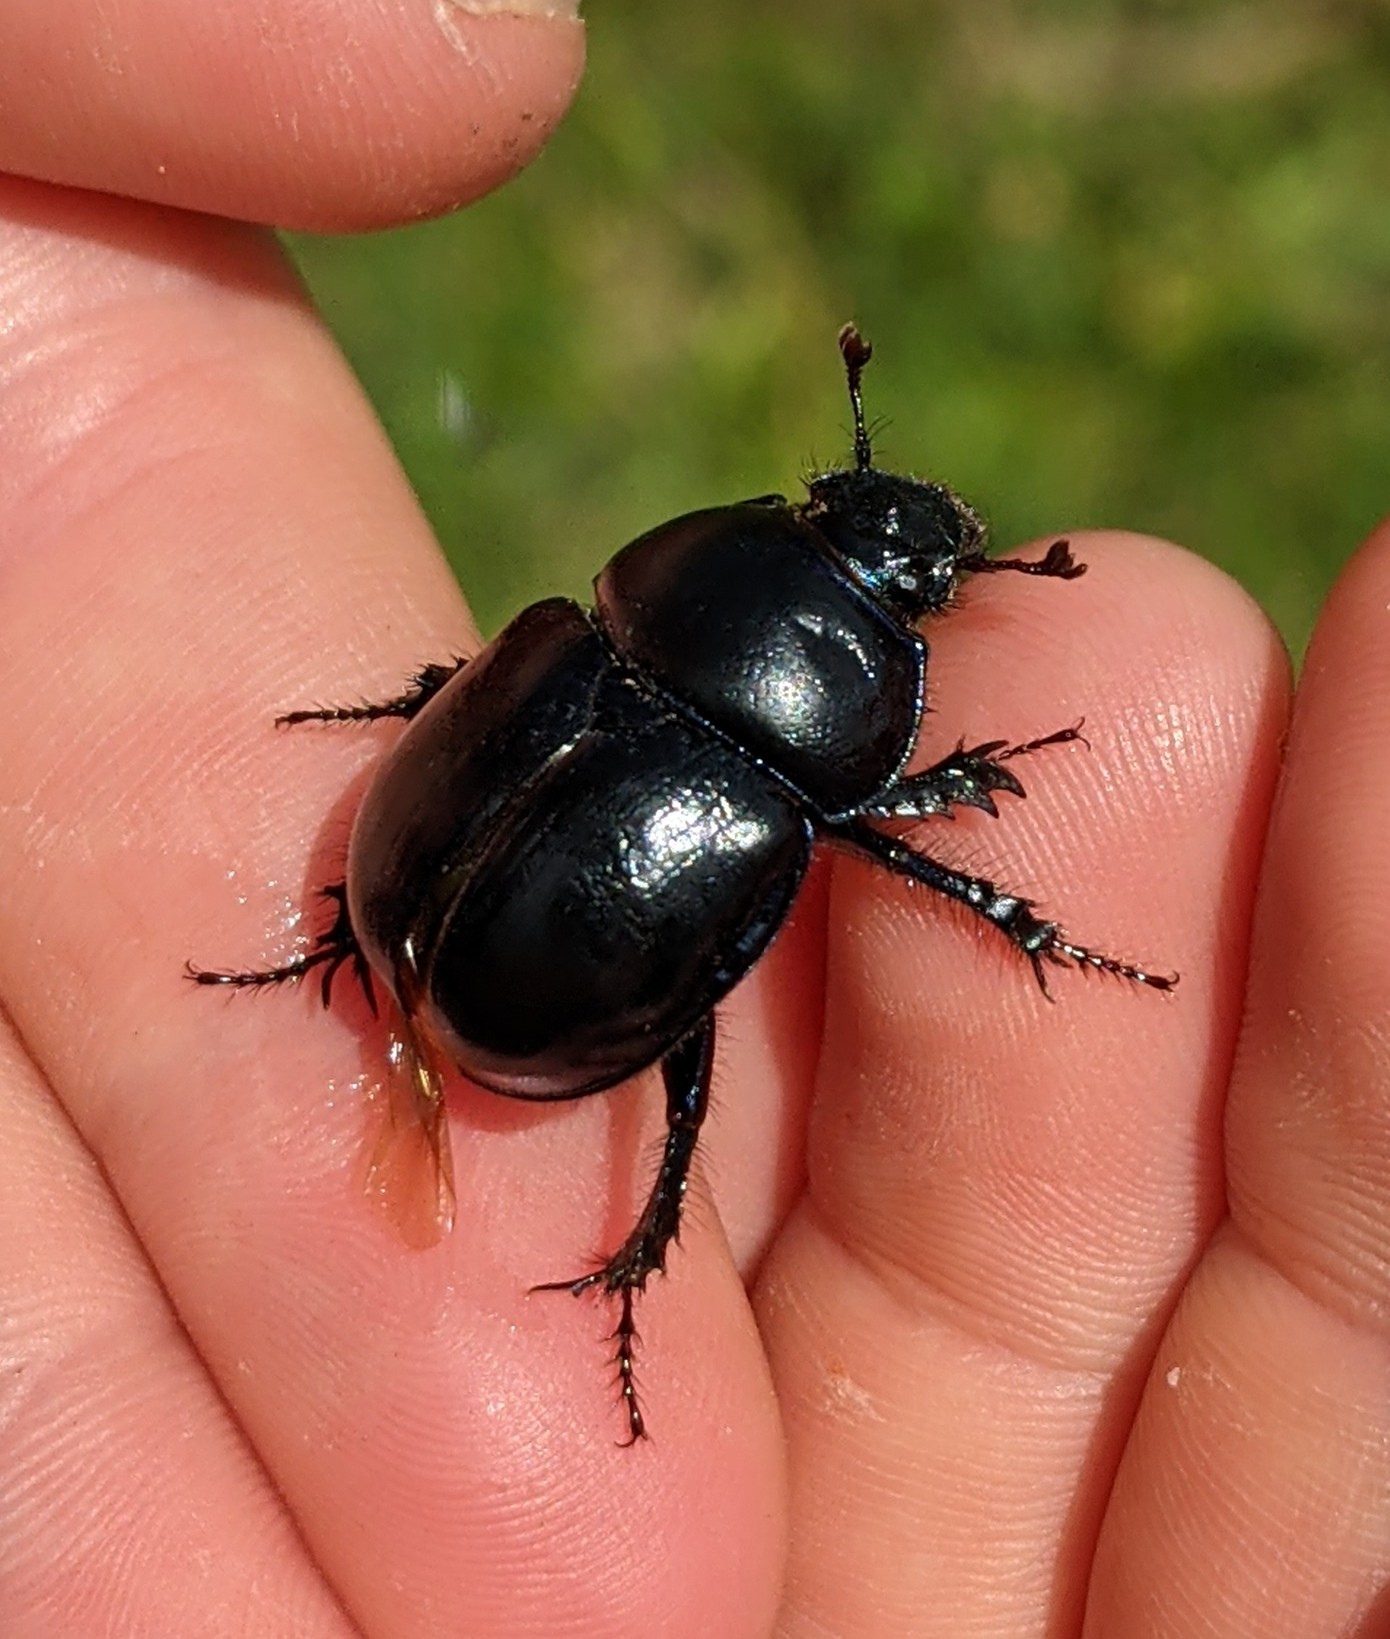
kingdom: Animalia
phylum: Arthropoda
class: Insecta
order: Coleoptera
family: Geotrupidae
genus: Trypocopris
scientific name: Trypocopris vernalis
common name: Spring dumbledor
